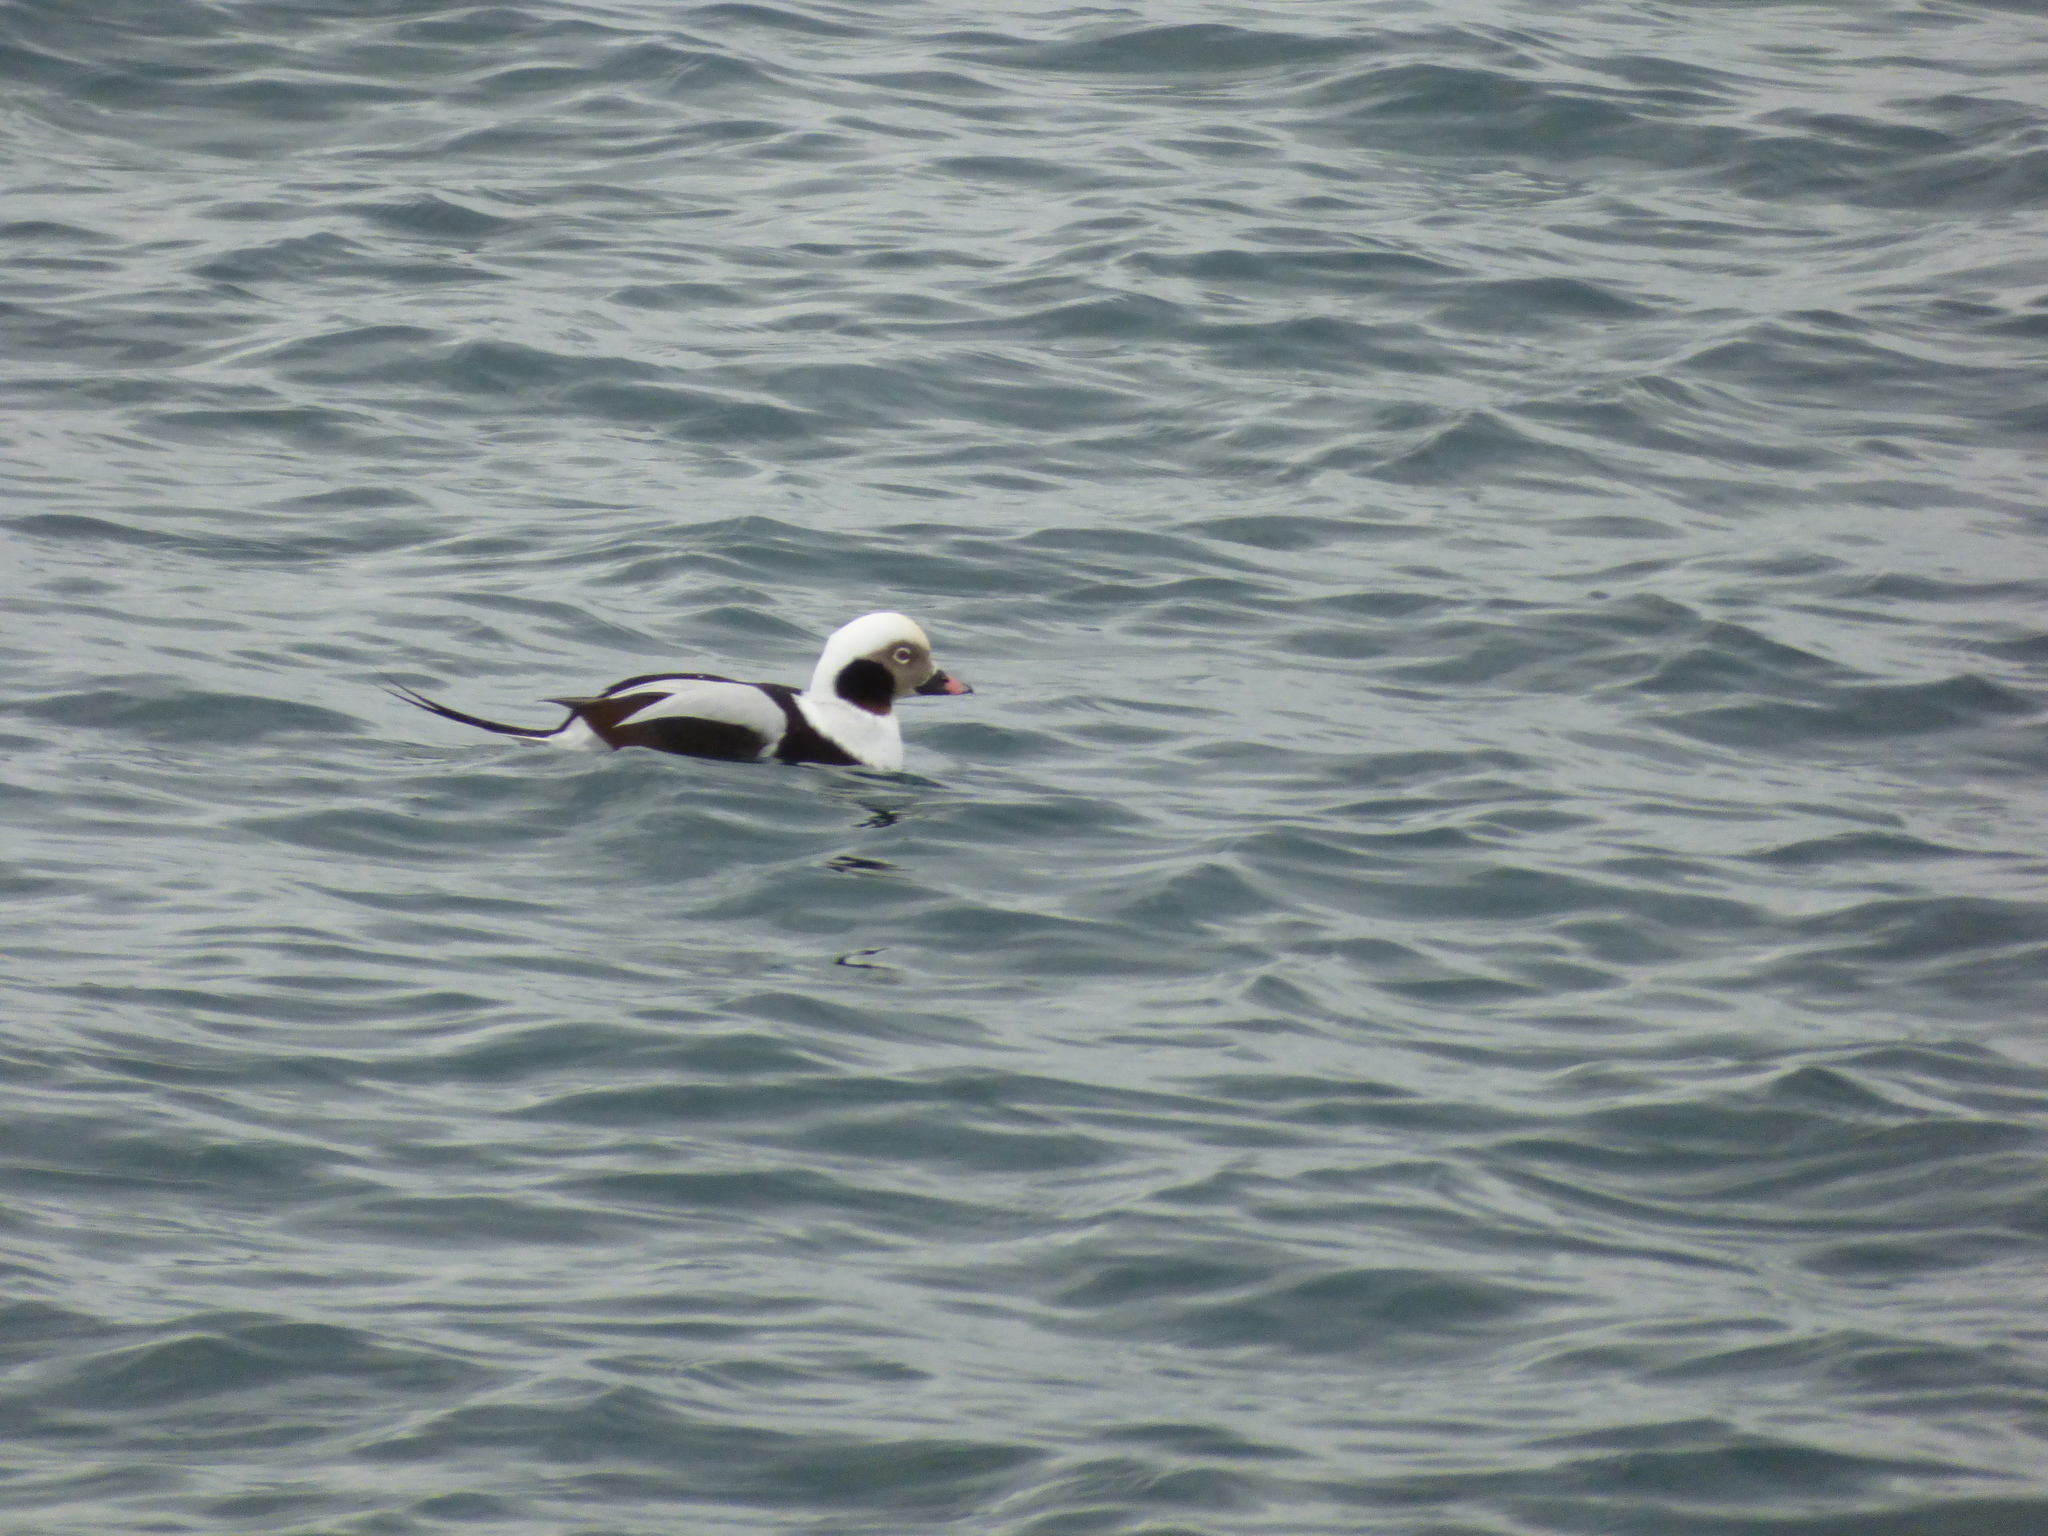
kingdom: Animalia
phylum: Chordata
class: Aves
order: Anseriformes
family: Anatidae
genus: Clangula
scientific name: Clangula hyemalis
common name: Long-tailed duck
